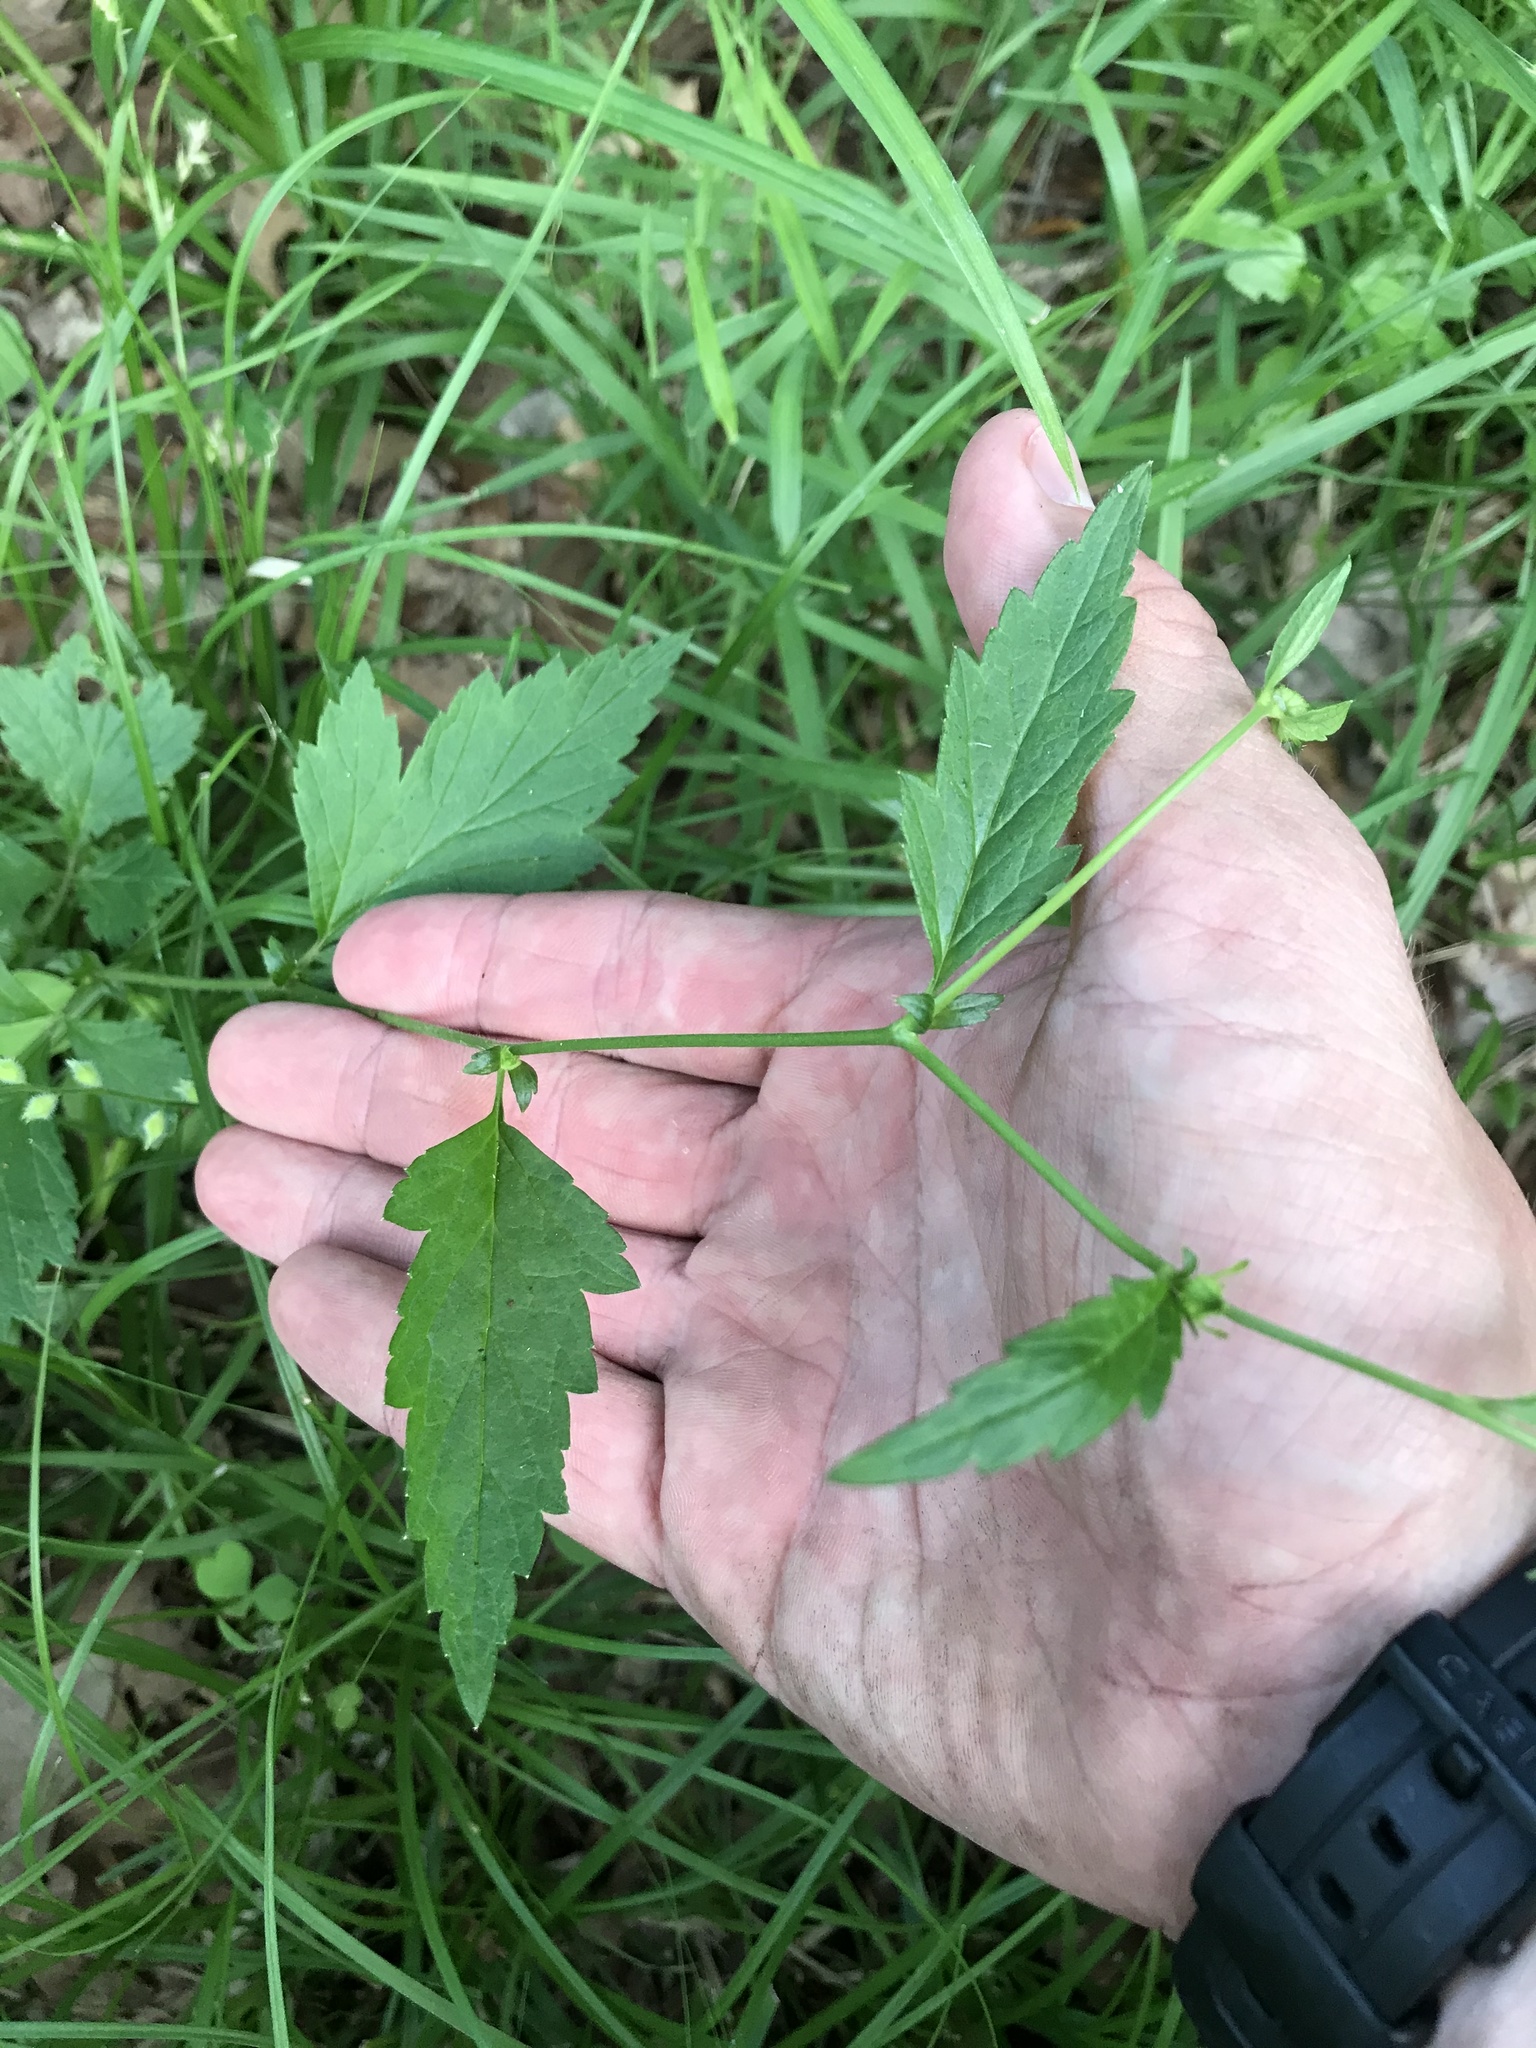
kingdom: Plantae
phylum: Tracheophyta
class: Magnoliopsida
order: Rosales
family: Rosaceae
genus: Geum
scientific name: Geum canadense
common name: White avens
